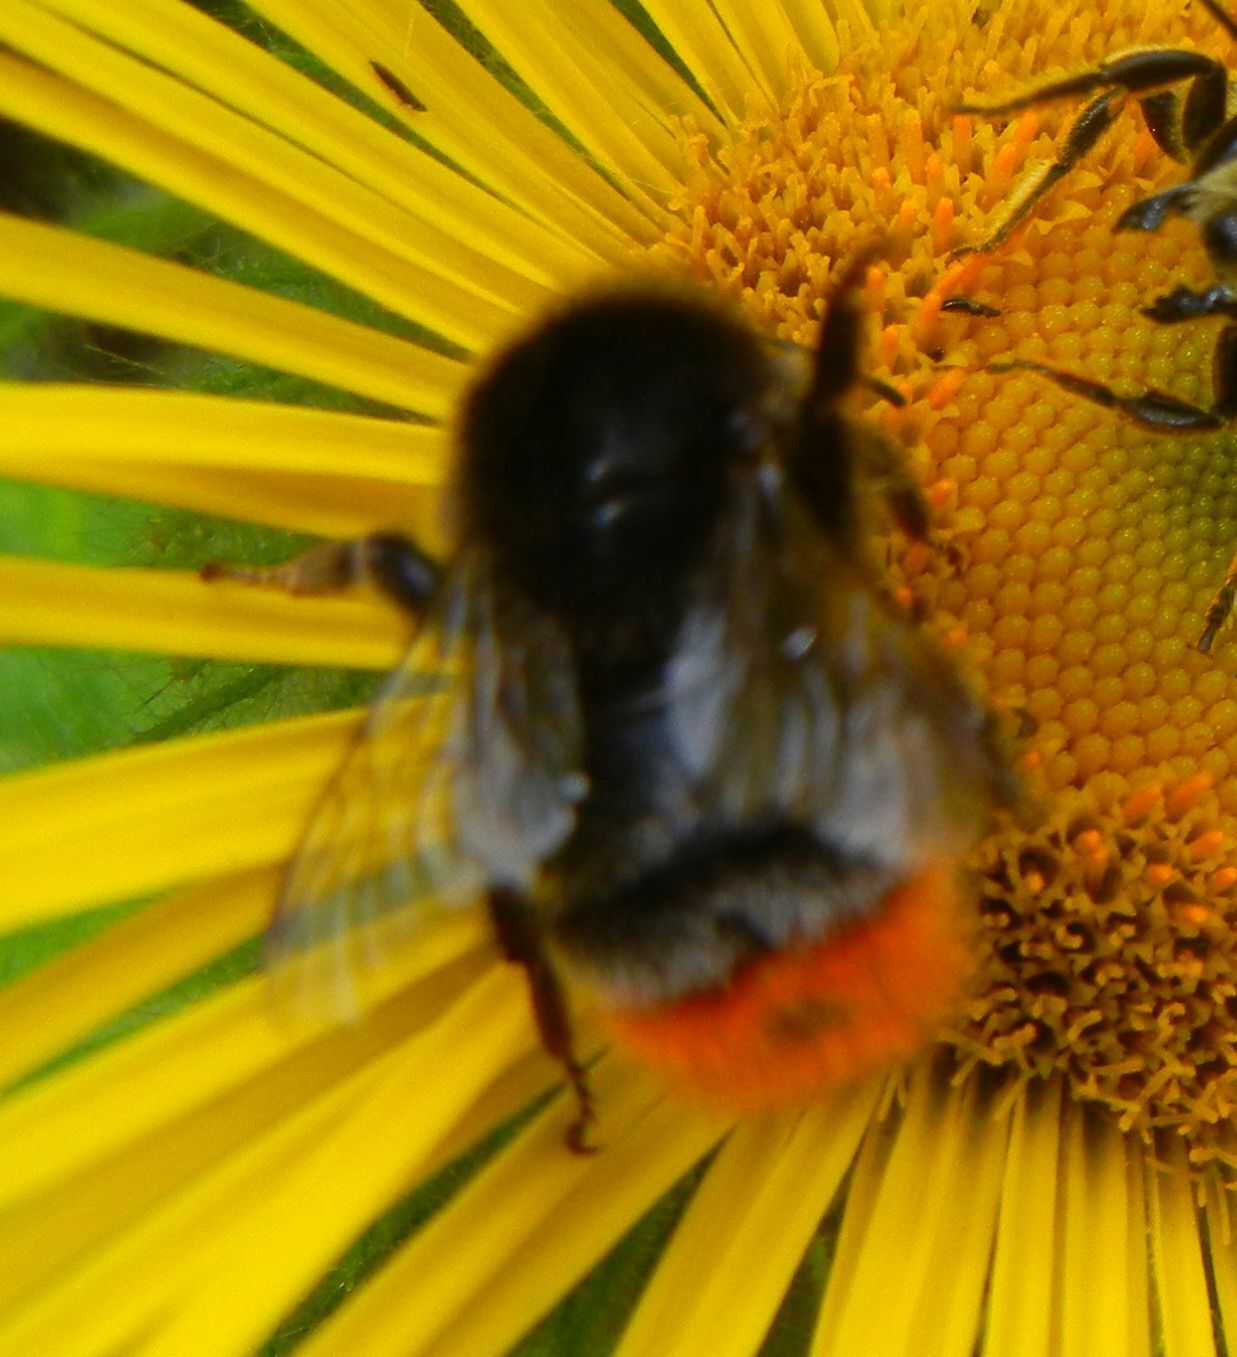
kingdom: Animalia
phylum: Arthropoda
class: Insecta
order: Hymenoptera
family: Apidae
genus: Bombus
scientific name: Bombus lapidarius
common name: Large red-tailed humble-bee
